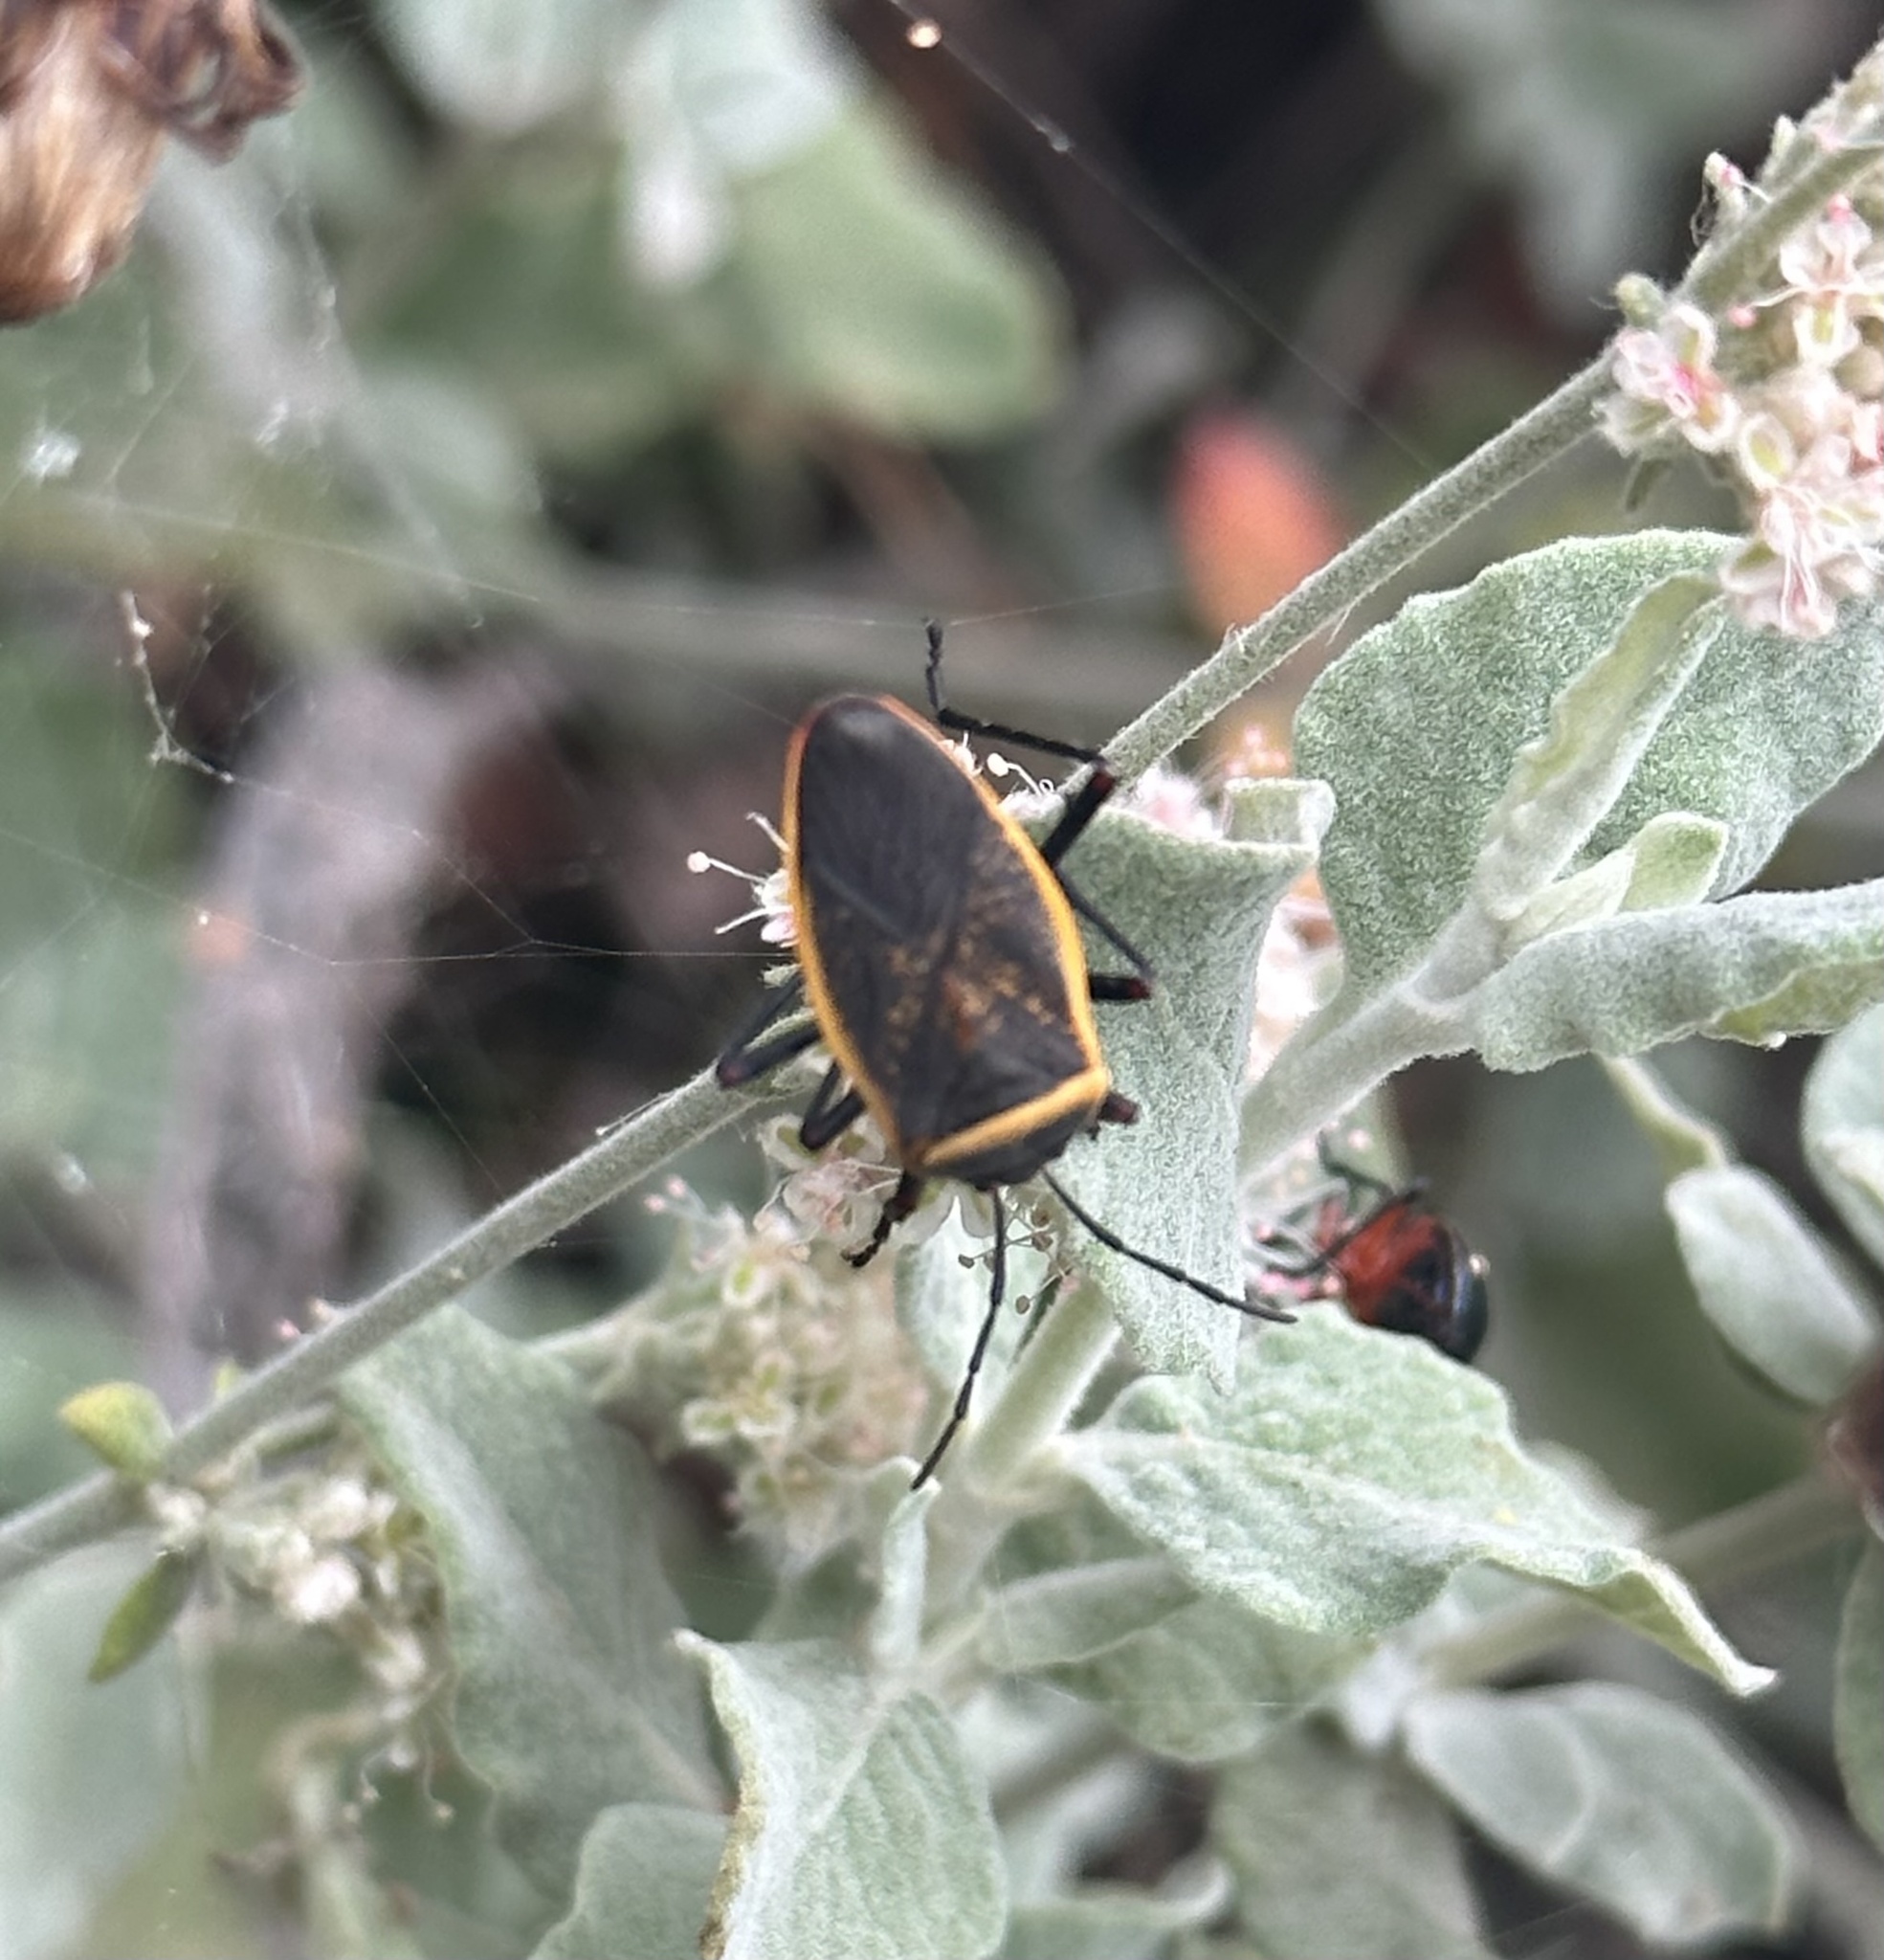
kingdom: Animalia
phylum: Arthropoda
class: Insecta
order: Hemiptera
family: Largidae
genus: Largus
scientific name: Largus californicus
